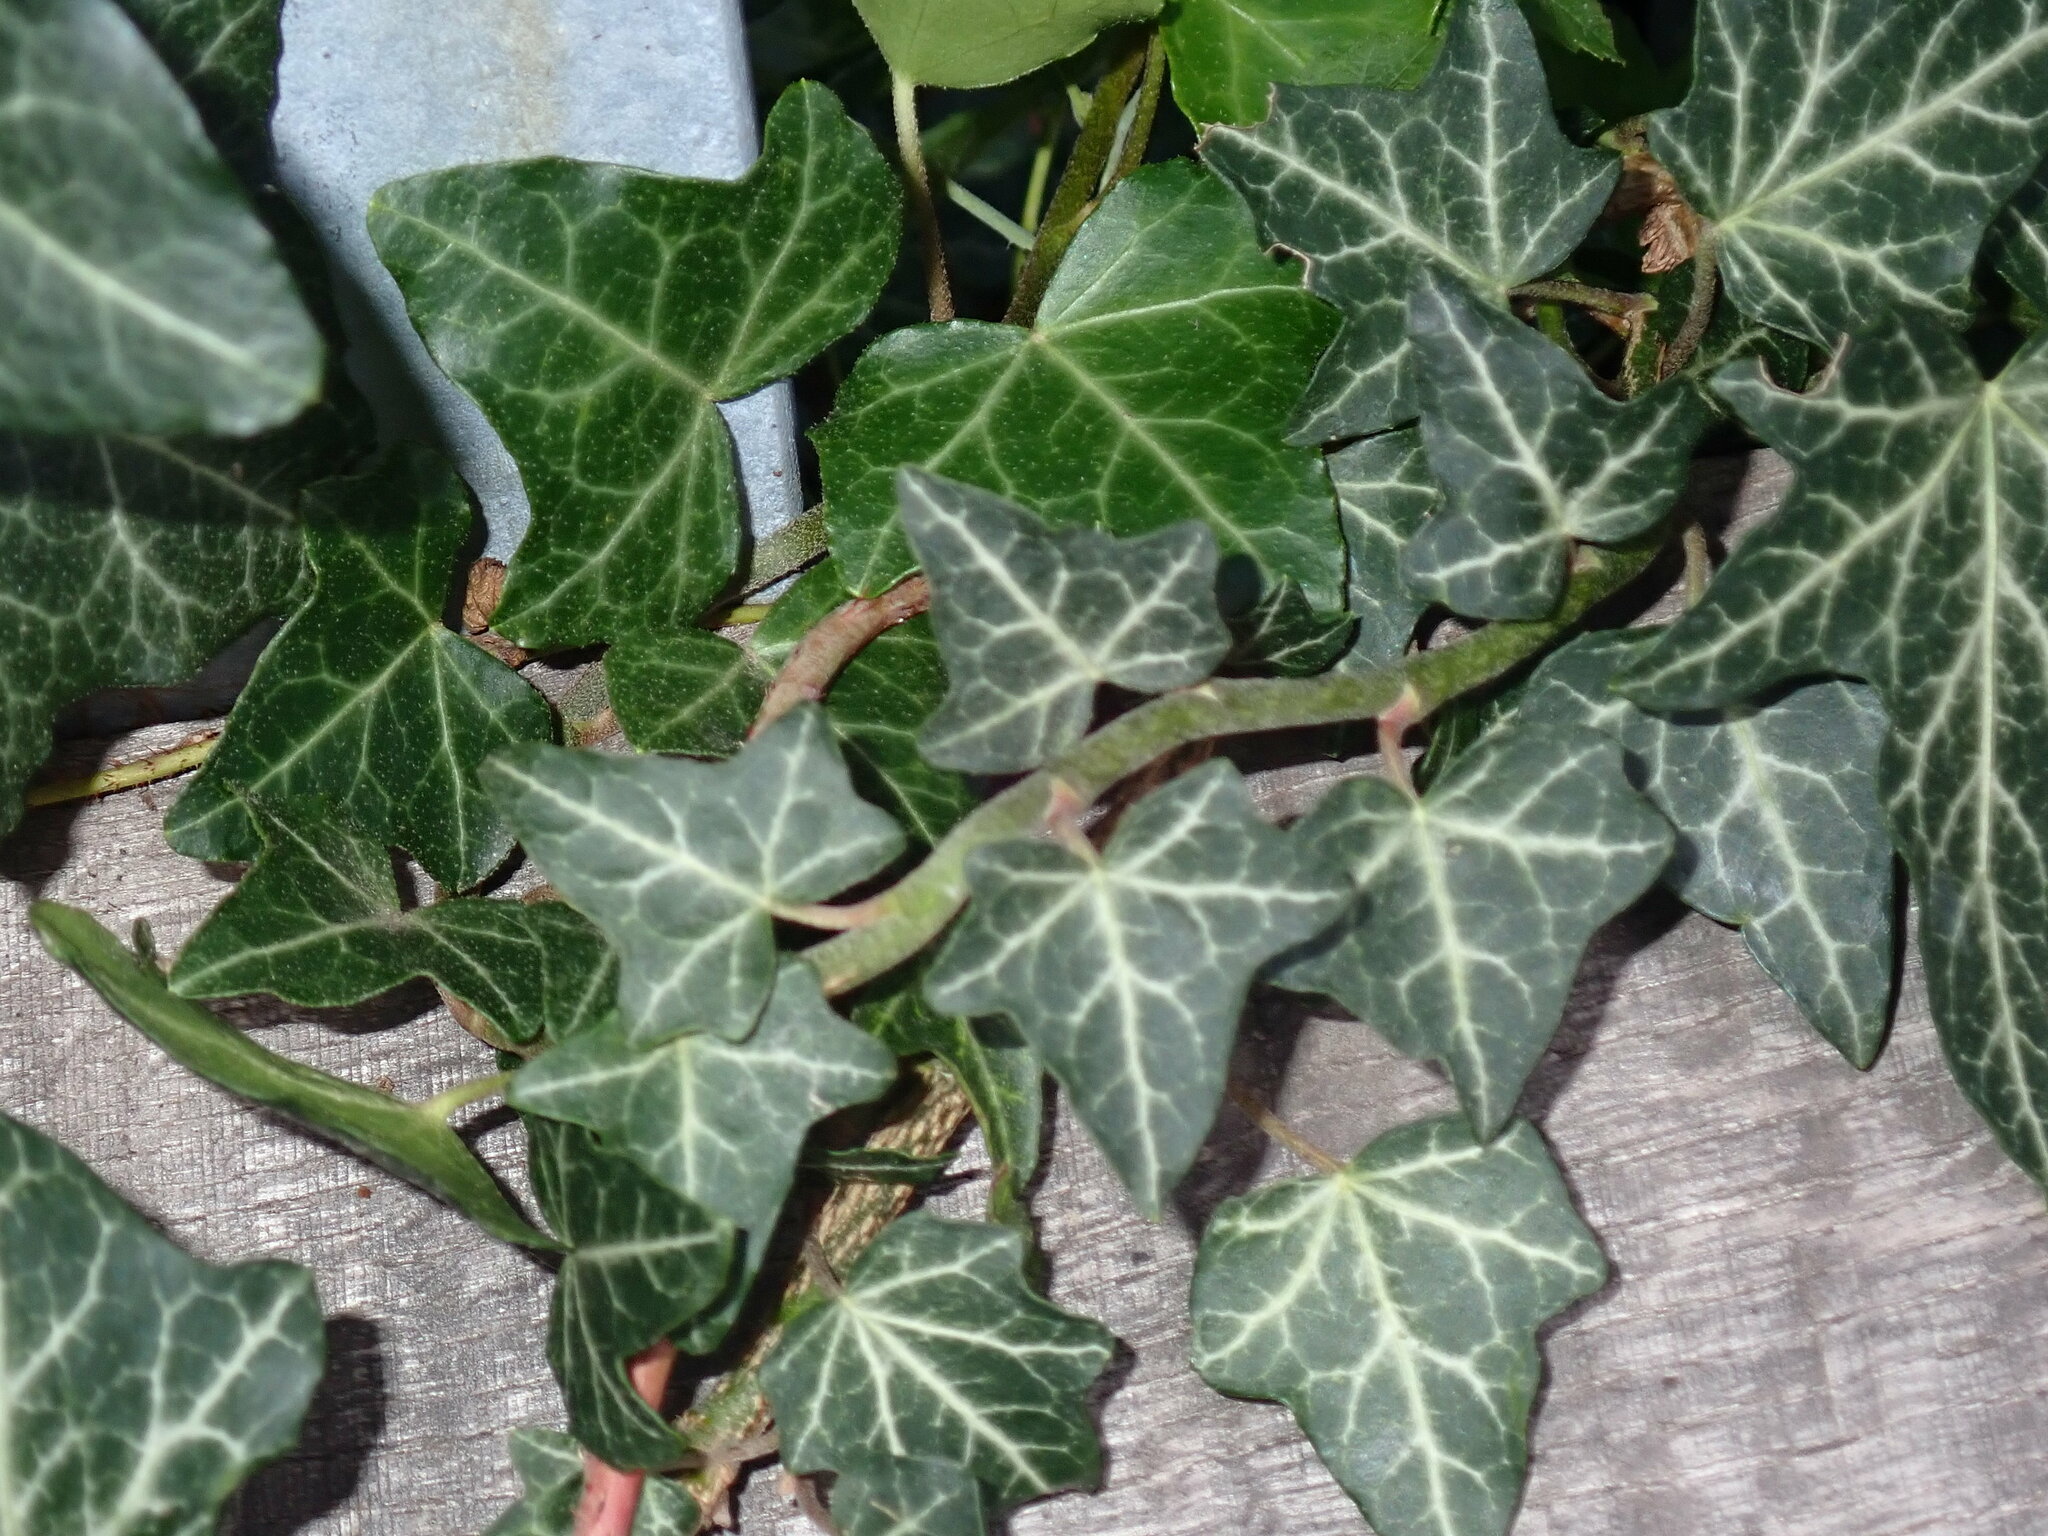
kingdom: Plantae
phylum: Tracheophyta
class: Magnoliopsida
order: Apiales
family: Araliaceae
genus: Hedera
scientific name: Hedera helix
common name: Ivy
